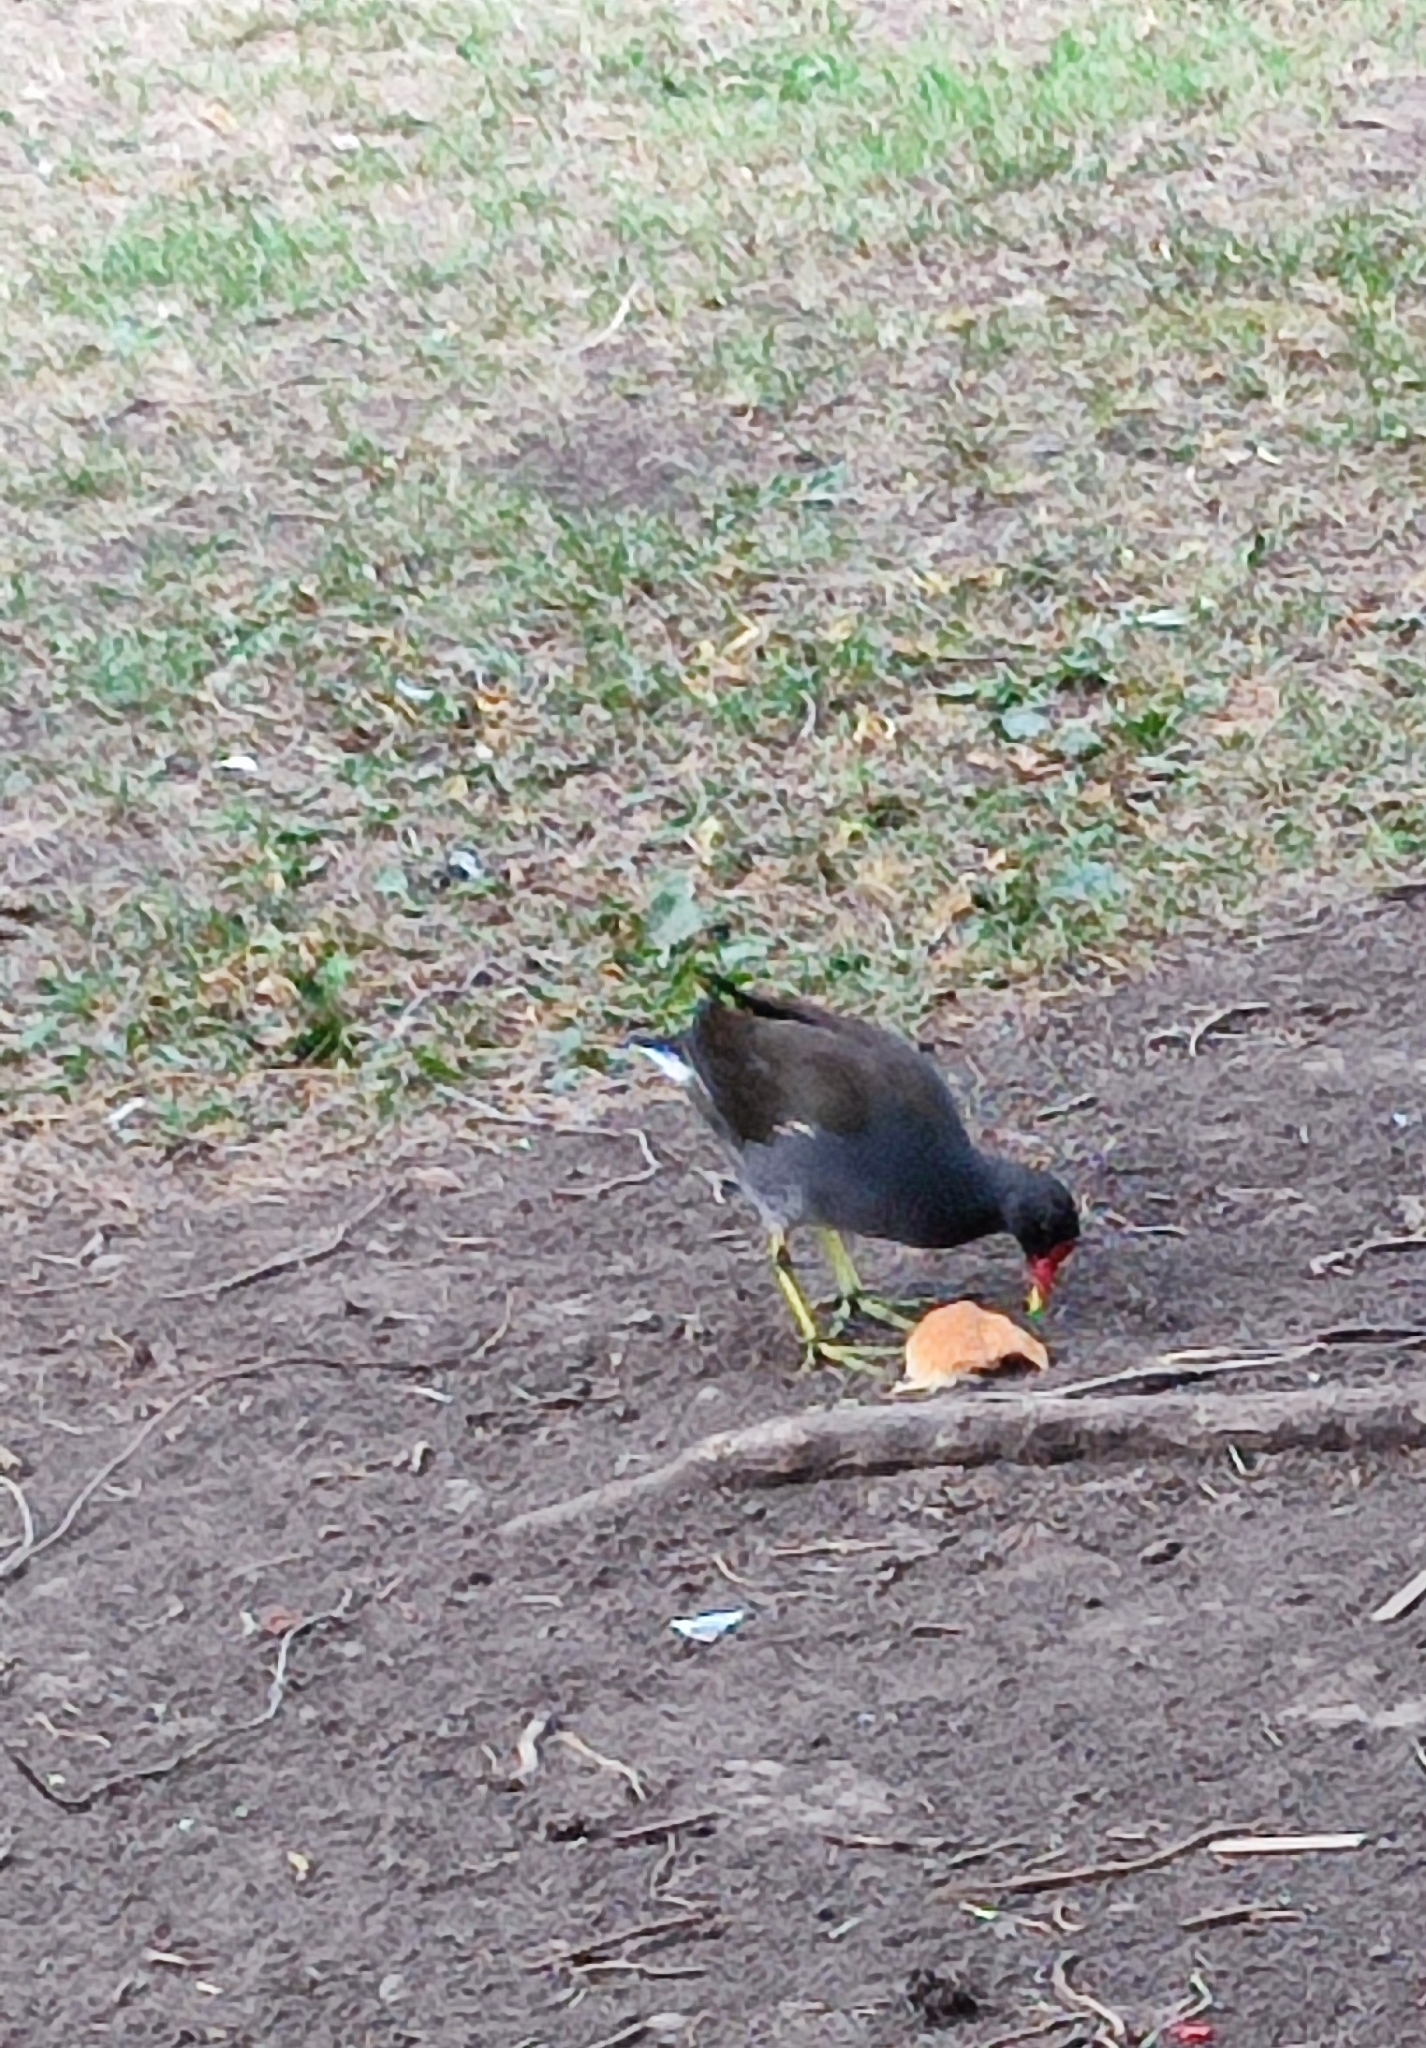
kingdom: Animalia
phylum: Chordata
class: Aves
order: Gruiformes
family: Rallidae
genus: Gallinula
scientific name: Gallinula chloropus
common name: Common moorhen
